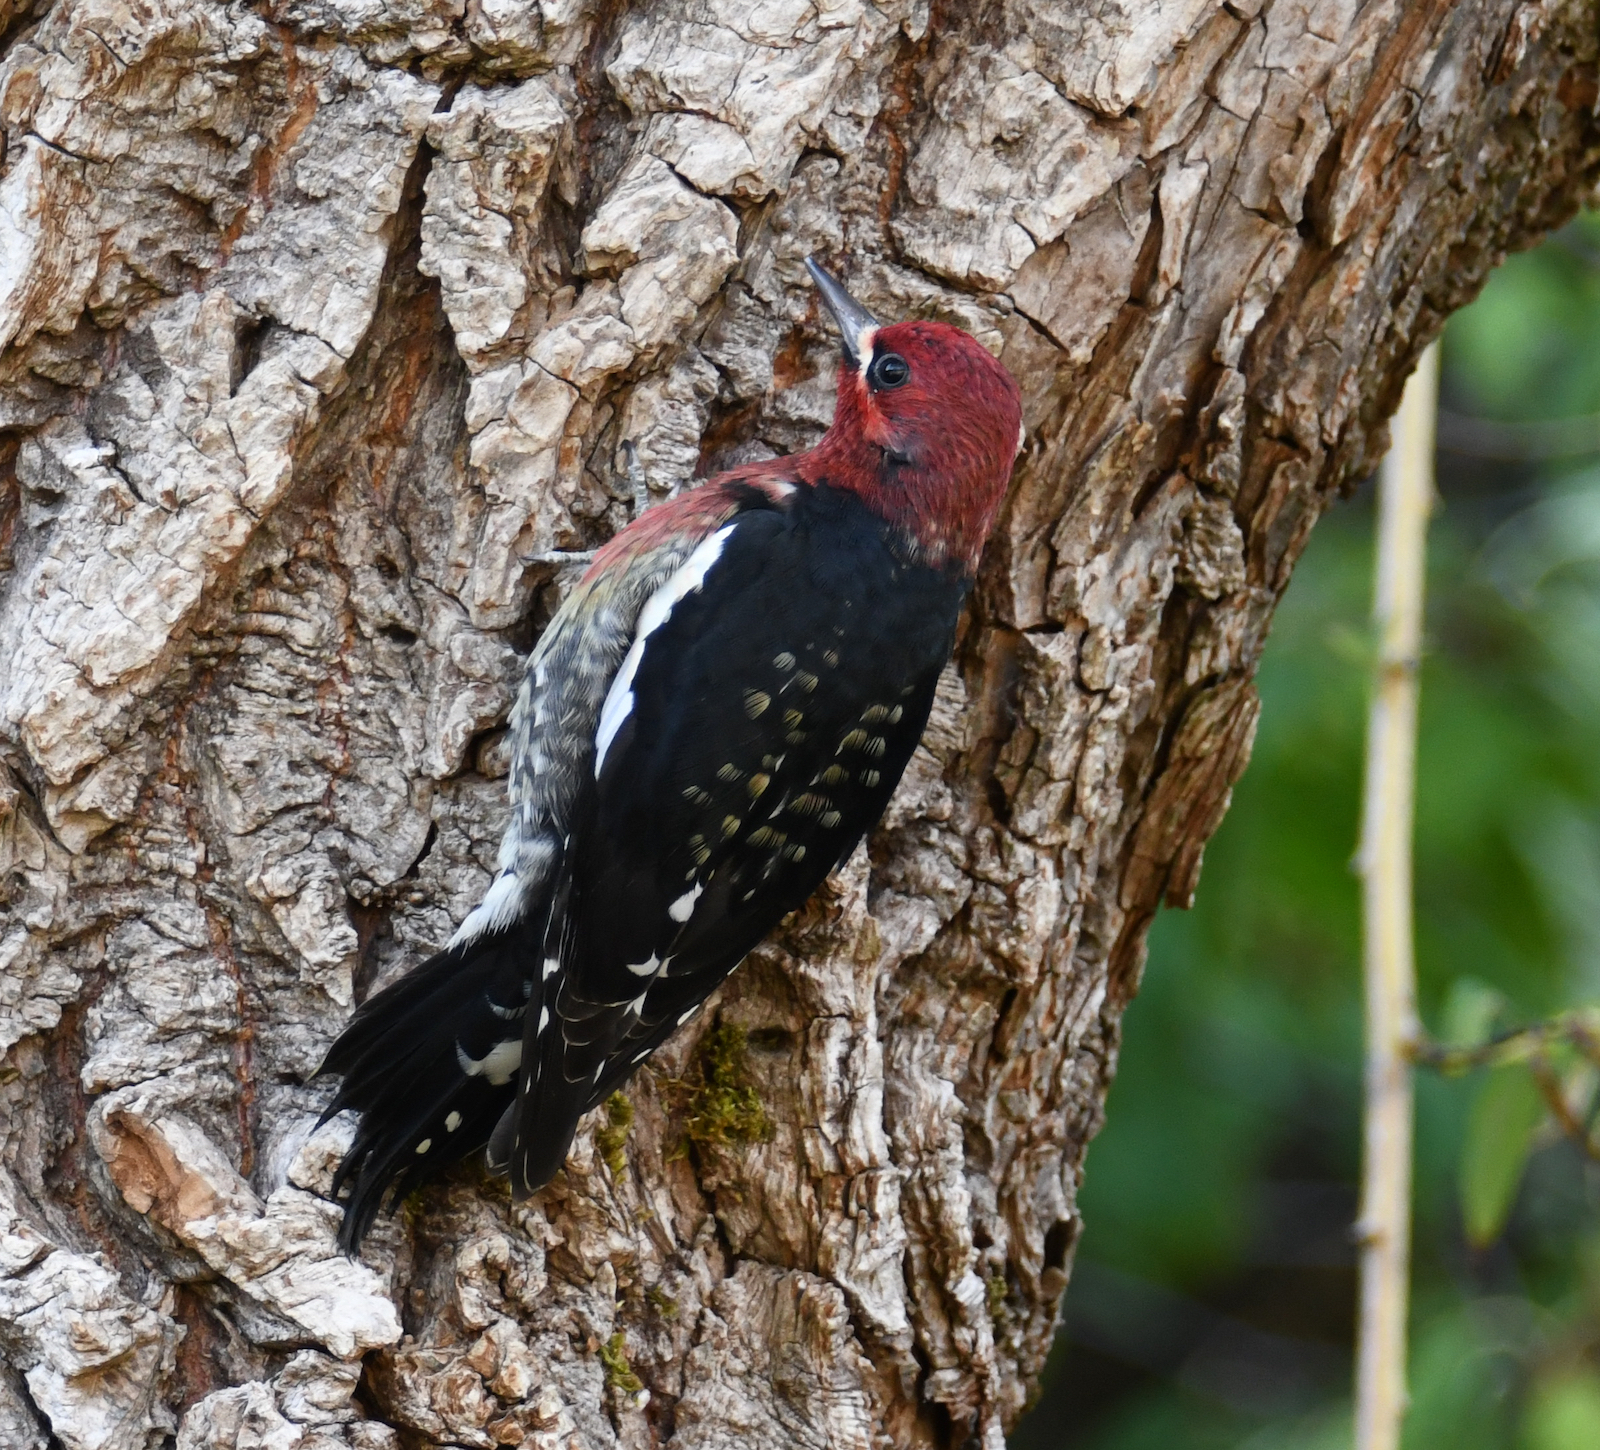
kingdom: Animalia
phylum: Chordata
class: Aves
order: Piciformes
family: Picidae
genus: Sphyrapicus
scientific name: Sphyrapicus ruber
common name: Red-breasted sapsucker
